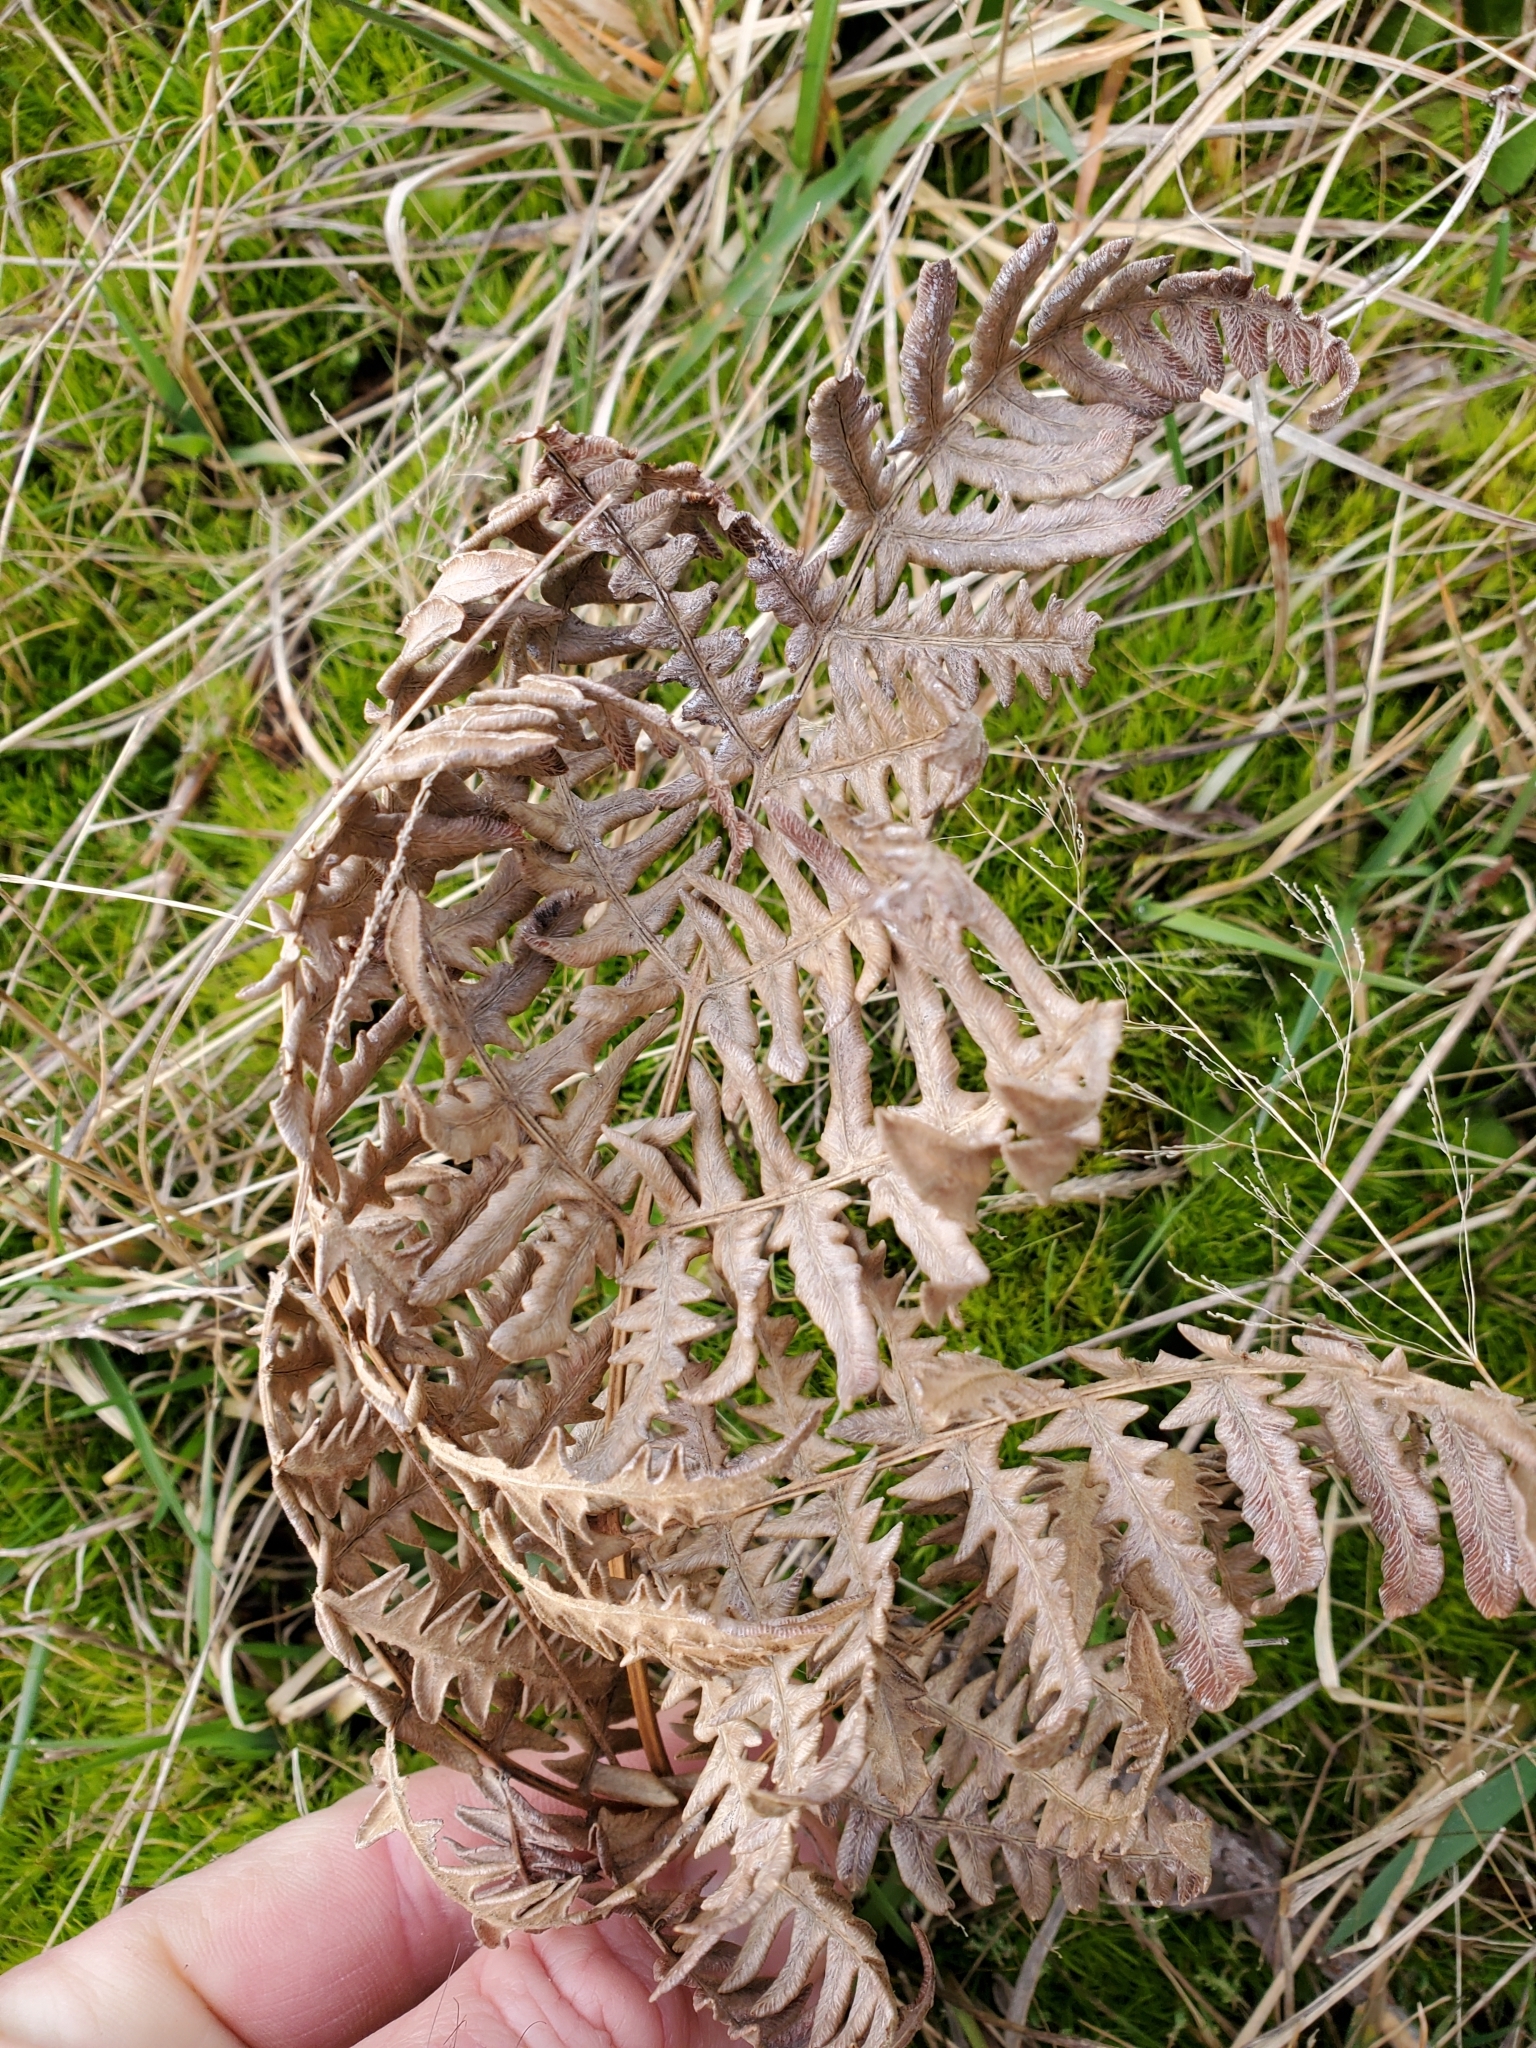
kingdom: Plantae
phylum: Tracheophyta
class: Polypodiopsida
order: Polypodiales
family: Dennstaedtiaceae
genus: Pteridium
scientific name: Pteridium aquilinum
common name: Bracken
